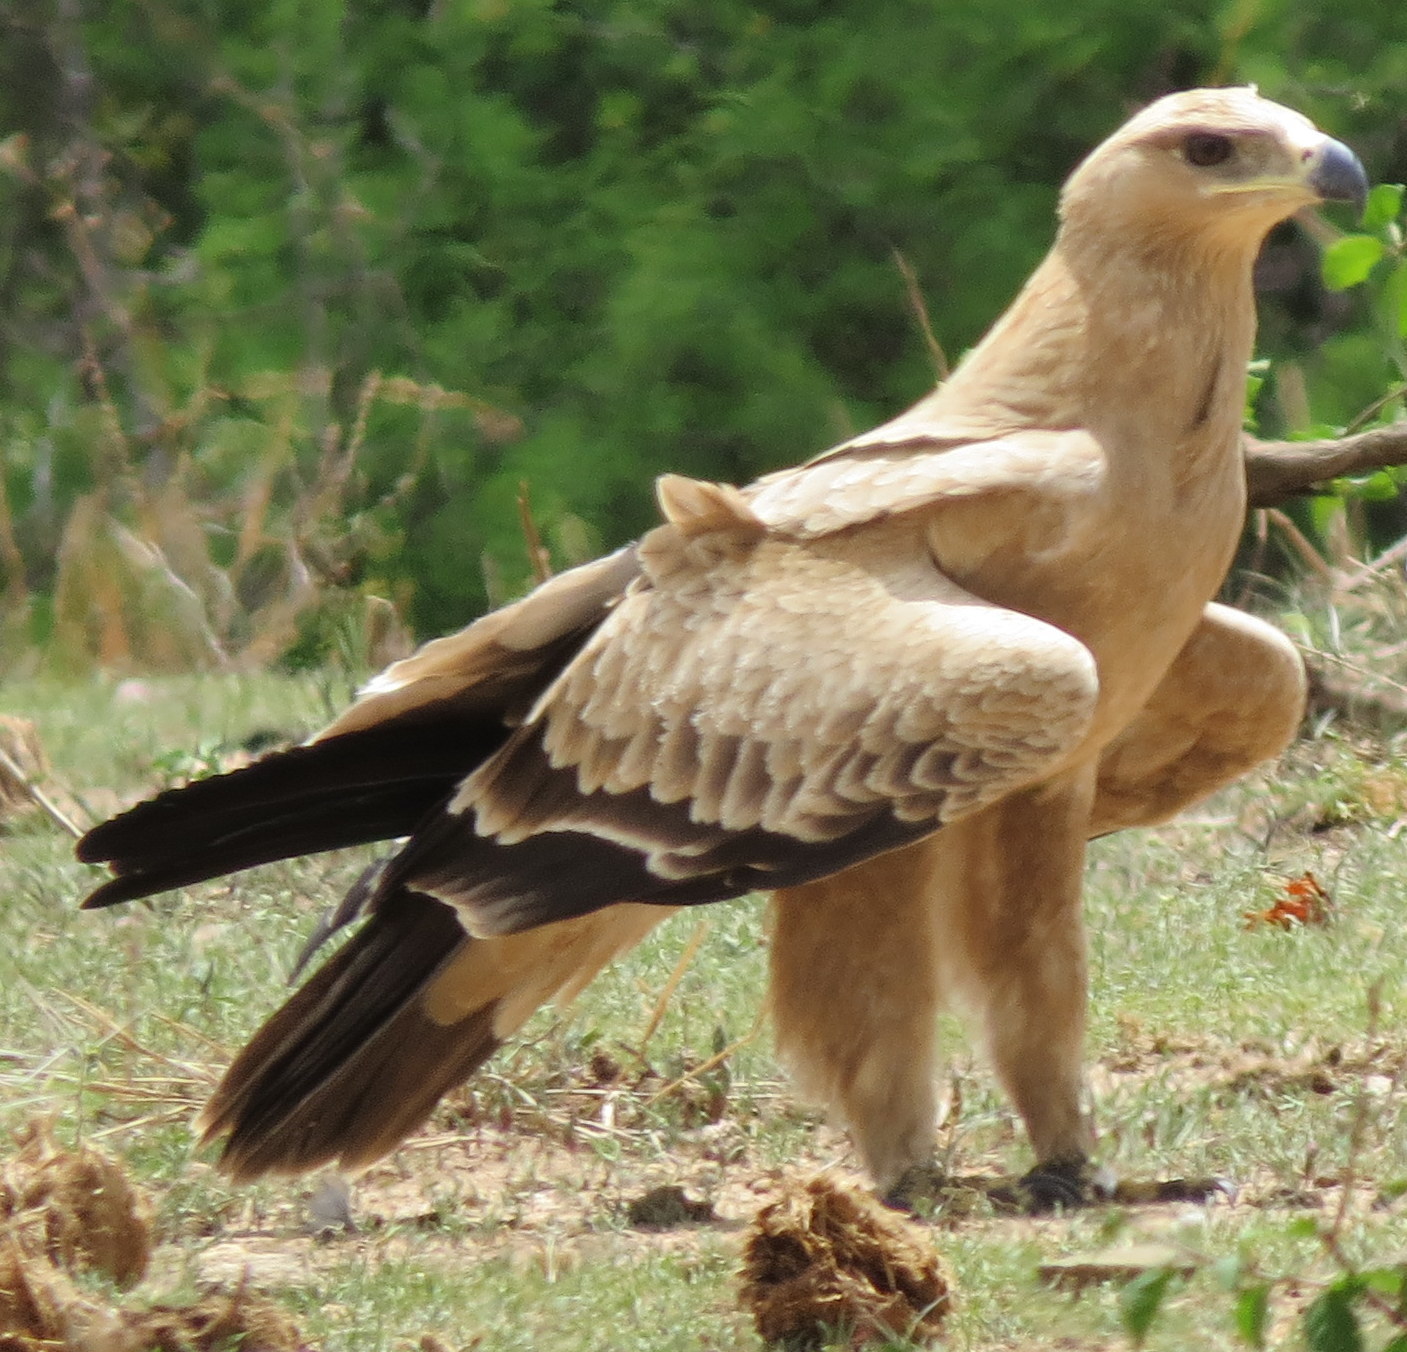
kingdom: Animalia
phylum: Chordata
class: Aves
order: Accipitriformes
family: Accipitridae
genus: Aquila
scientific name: Aquila rapax
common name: Tawny eagle
